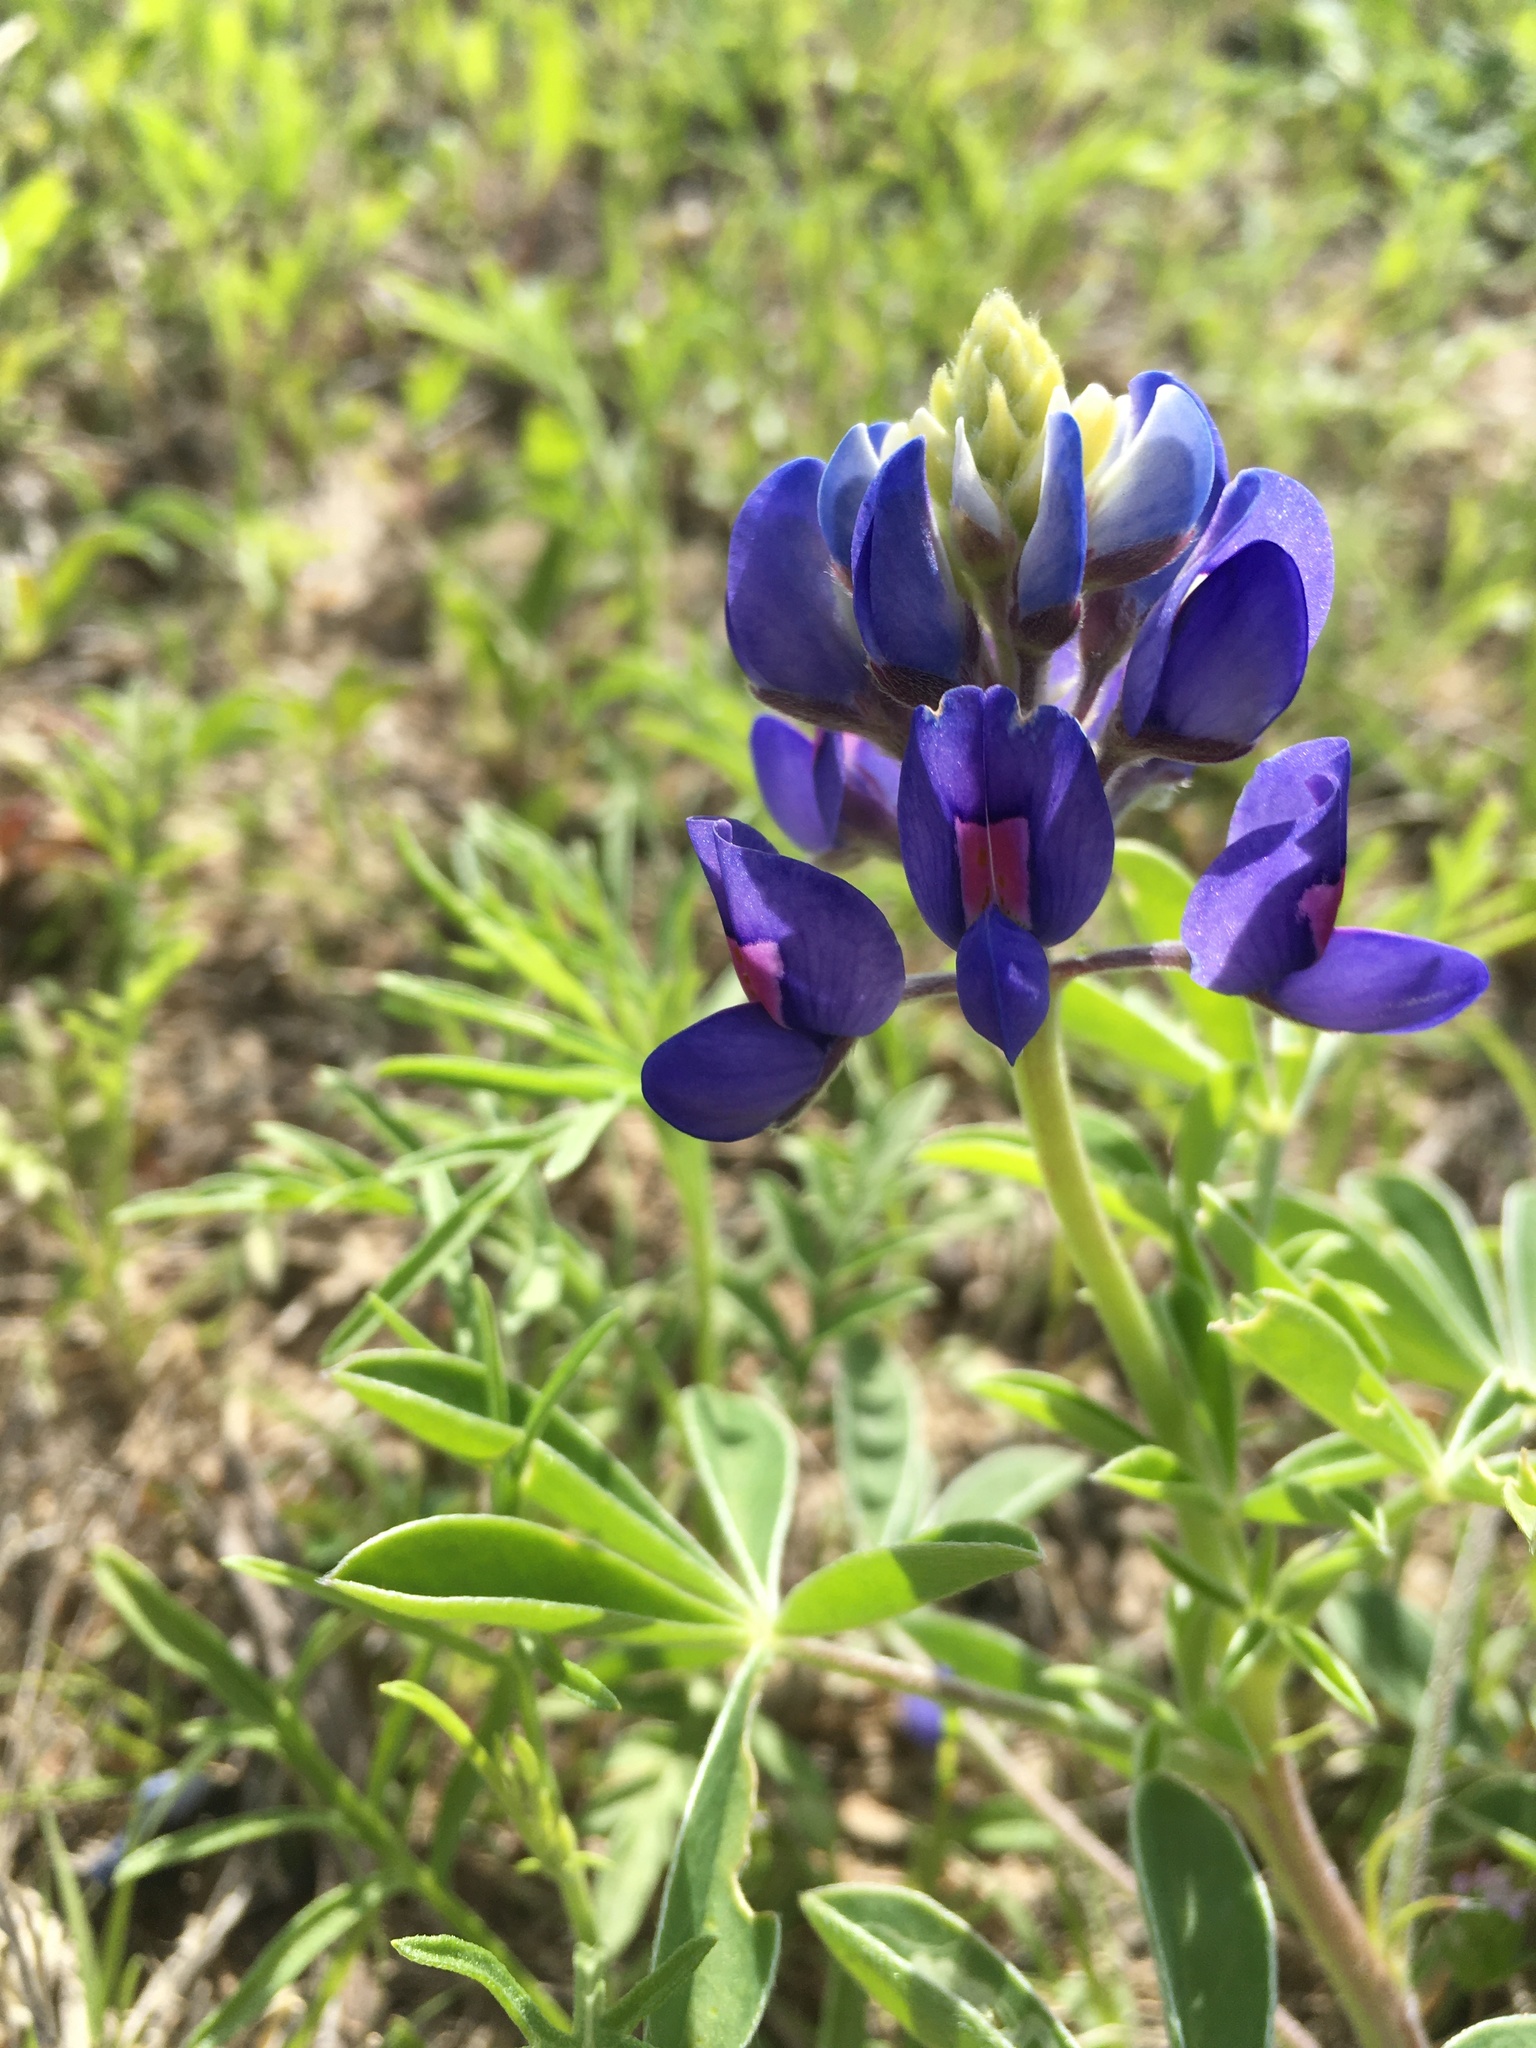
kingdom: Plantae
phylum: Tracheophyta
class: Magnoliopsida
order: Fabales
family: Fabaceae
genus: Lupinus
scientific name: Lupinus texensis
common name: Texas bluebonnet
